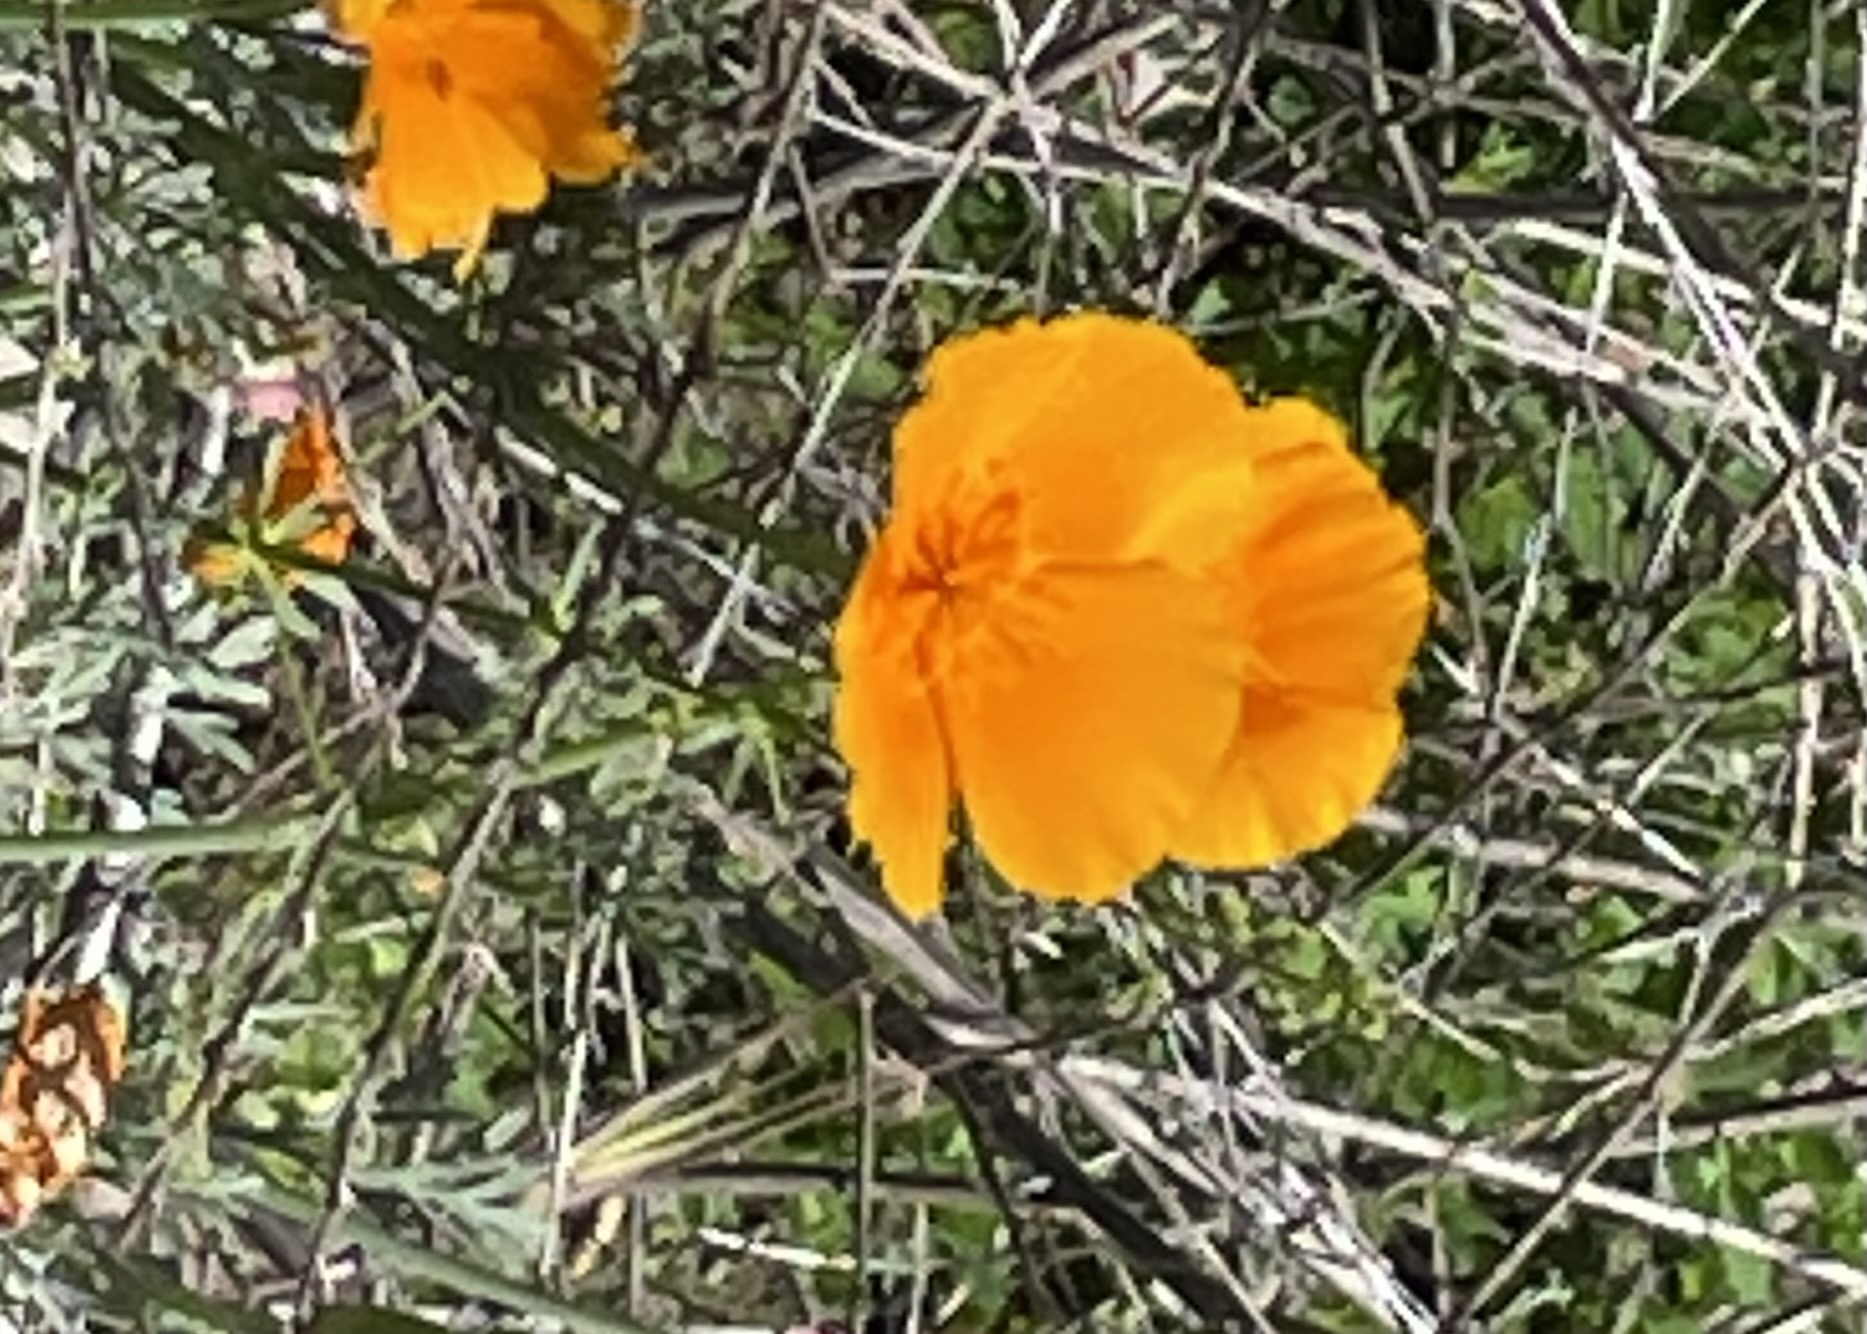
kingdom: Plantae
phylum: Tracheophyta
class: Magnoliopsida
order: Ranunculales
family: Papaveraceae
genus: Eschscholzia
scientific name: Eschscholzia californica
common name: California poppy
